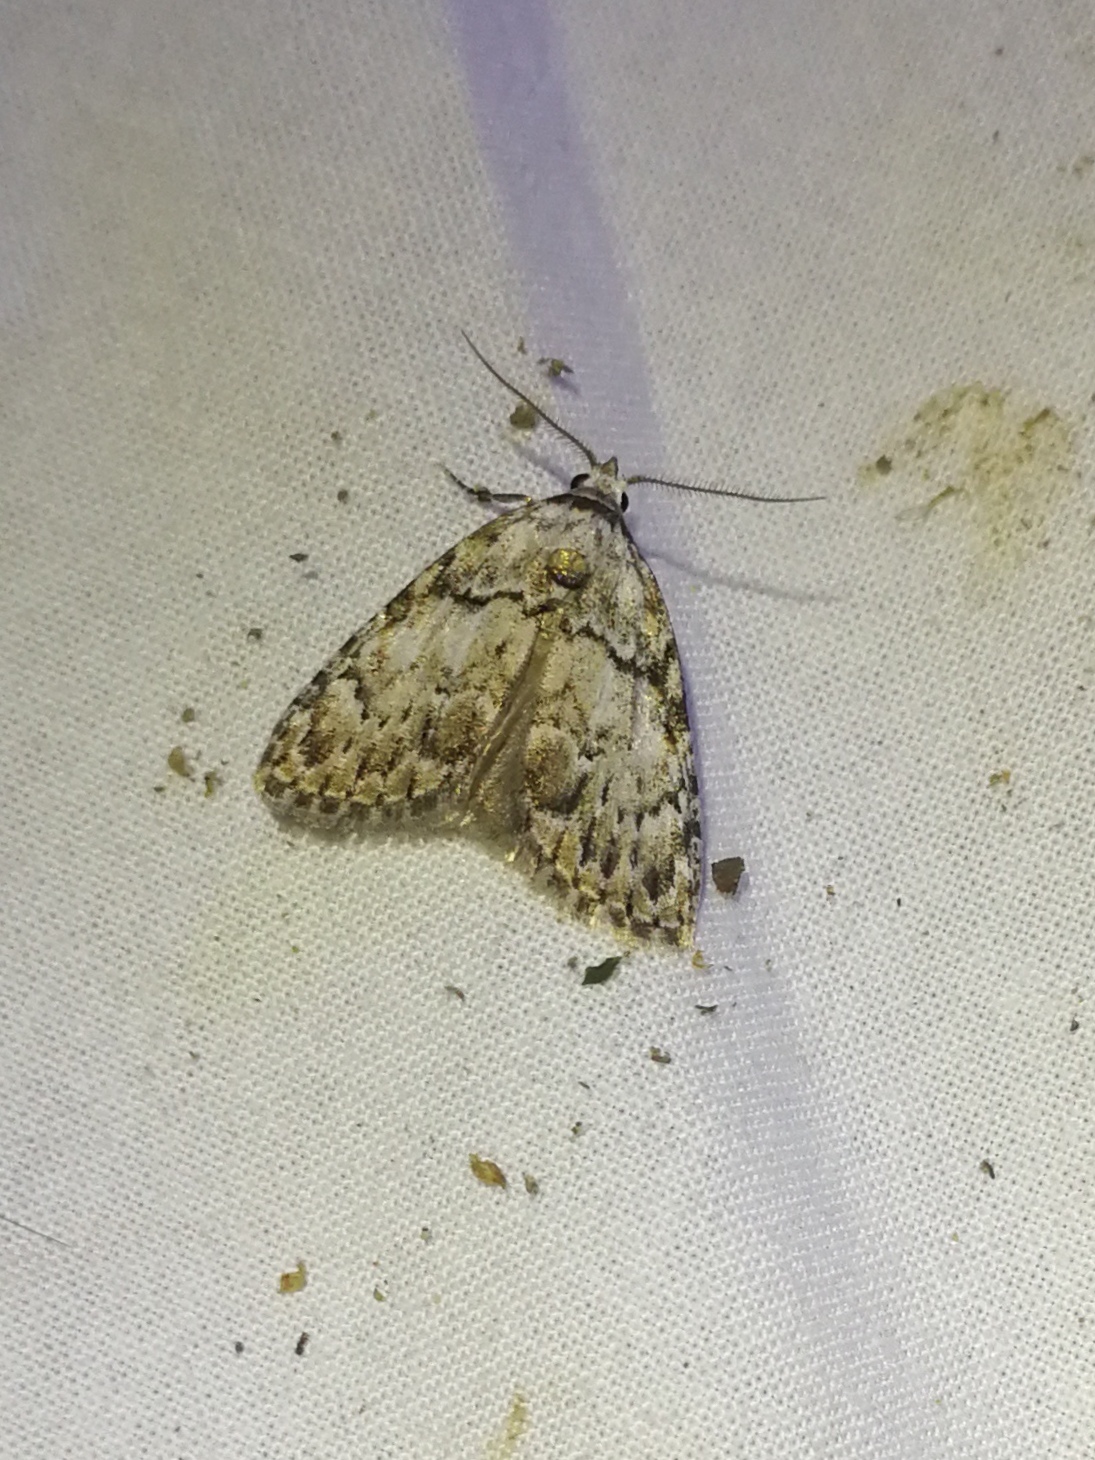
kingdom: Animalia
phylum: Arthropoda
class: Insecta
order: Lepidoptera
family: Nolidae
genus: Meganola
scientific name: Meganola strigula
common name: Small black arches
